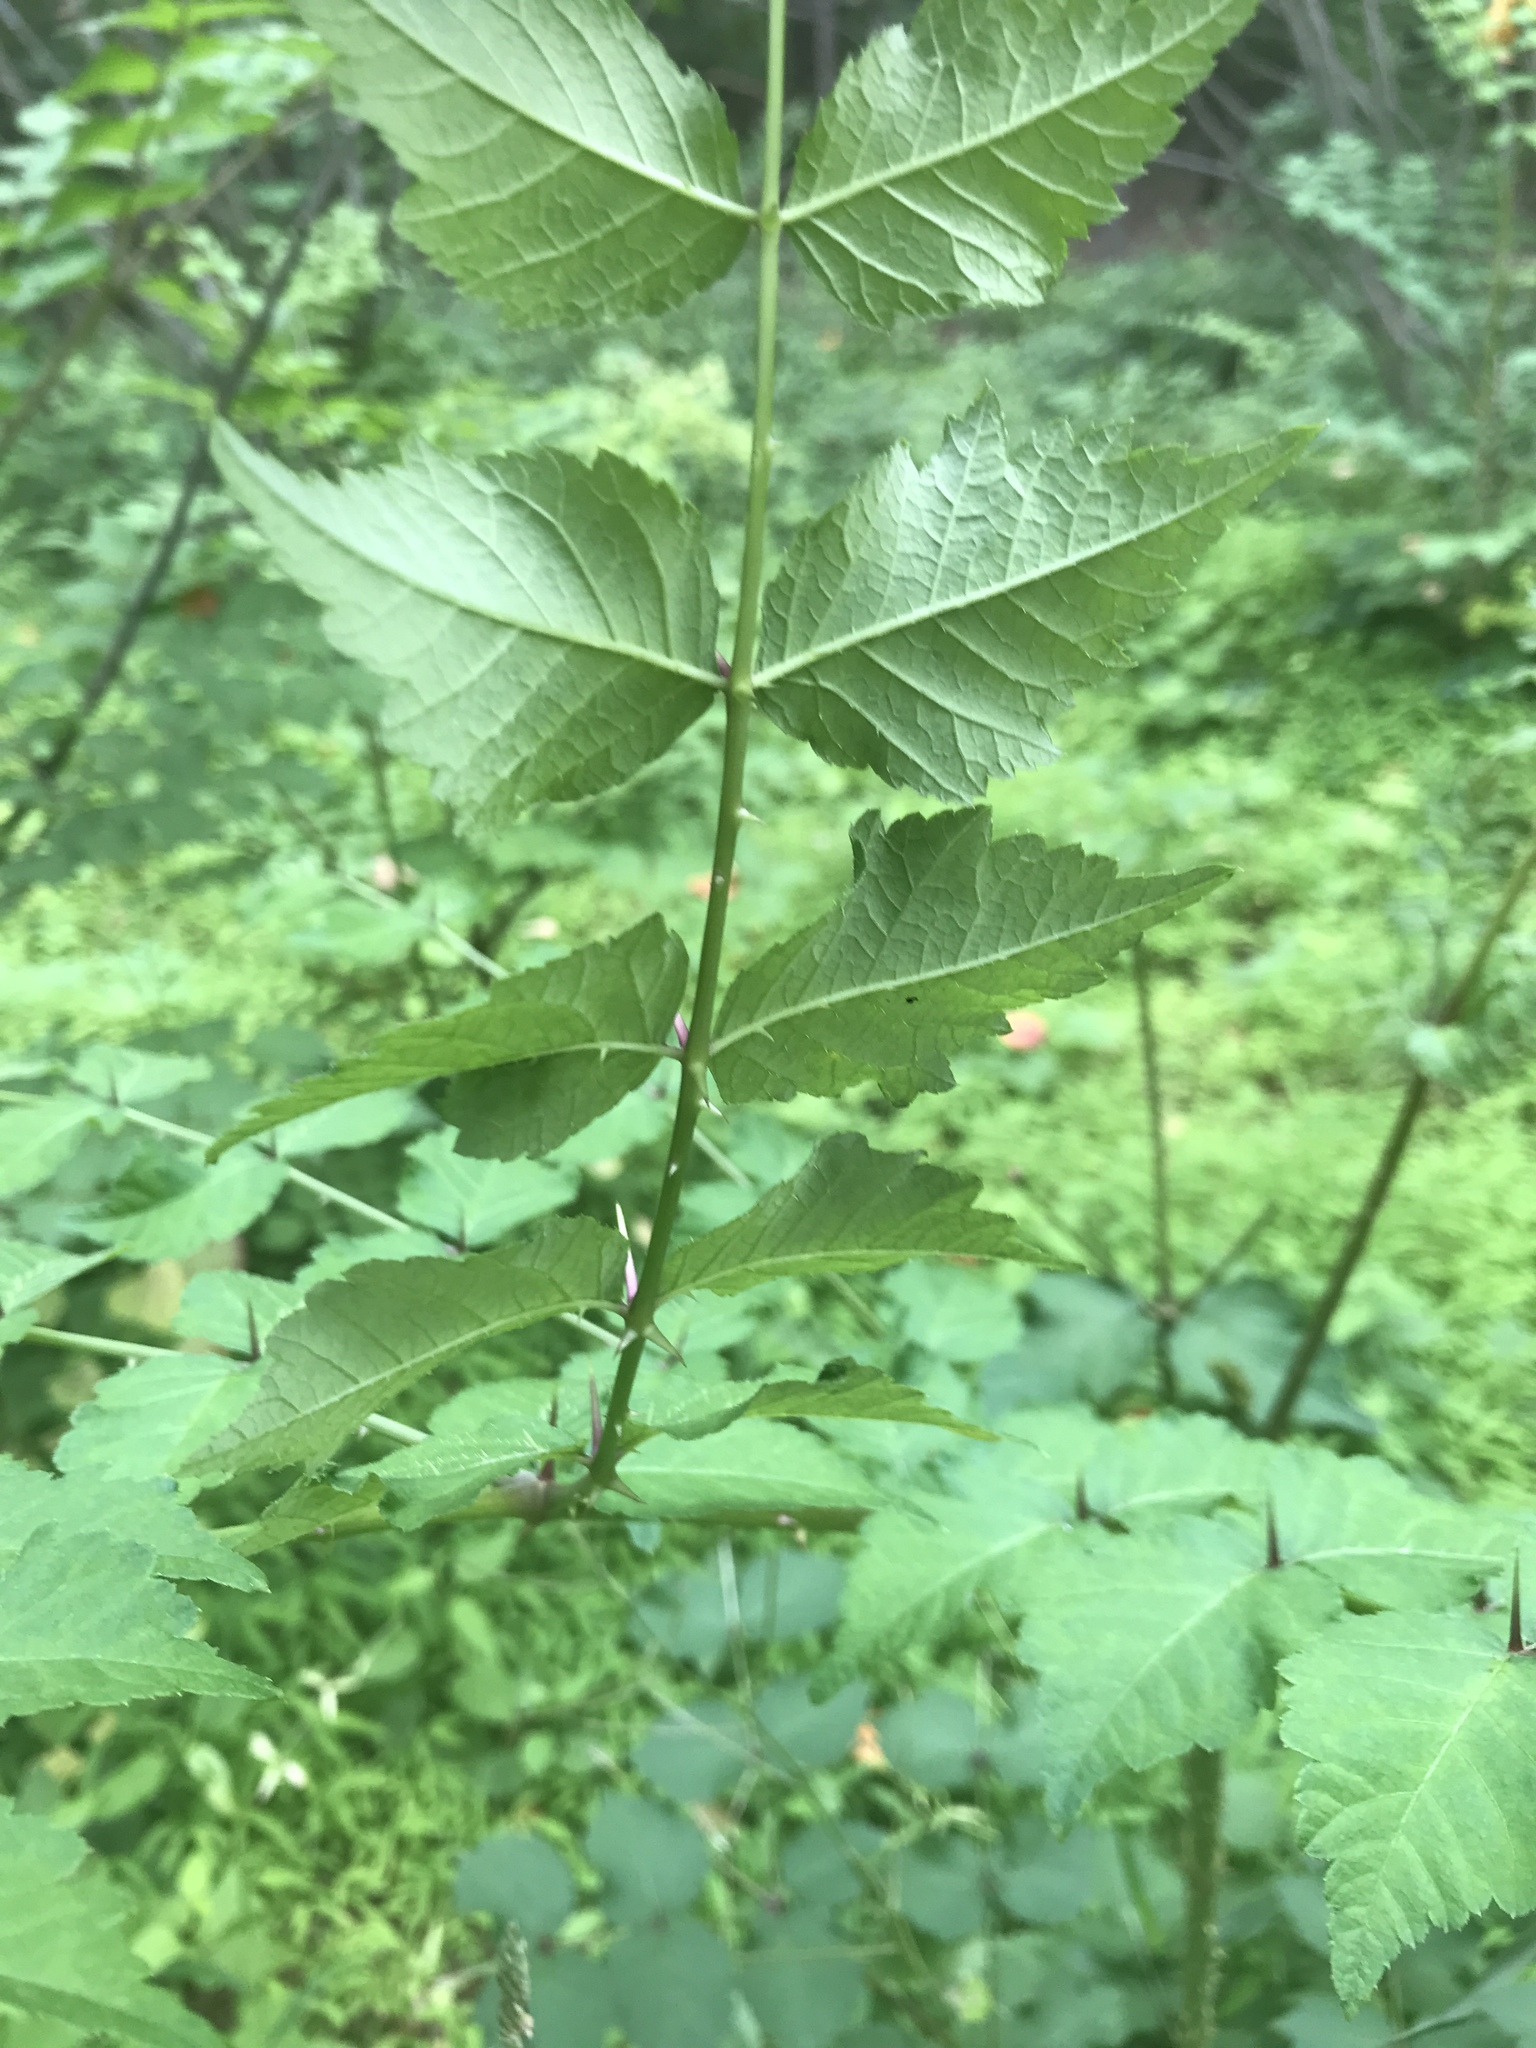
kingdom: Plantae
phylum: Tracheophyta
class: Magnoliopsida
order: Apiales
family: Araliaceae
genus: Aralia
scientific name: Aralia elata
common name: Japanese angelica-tree
